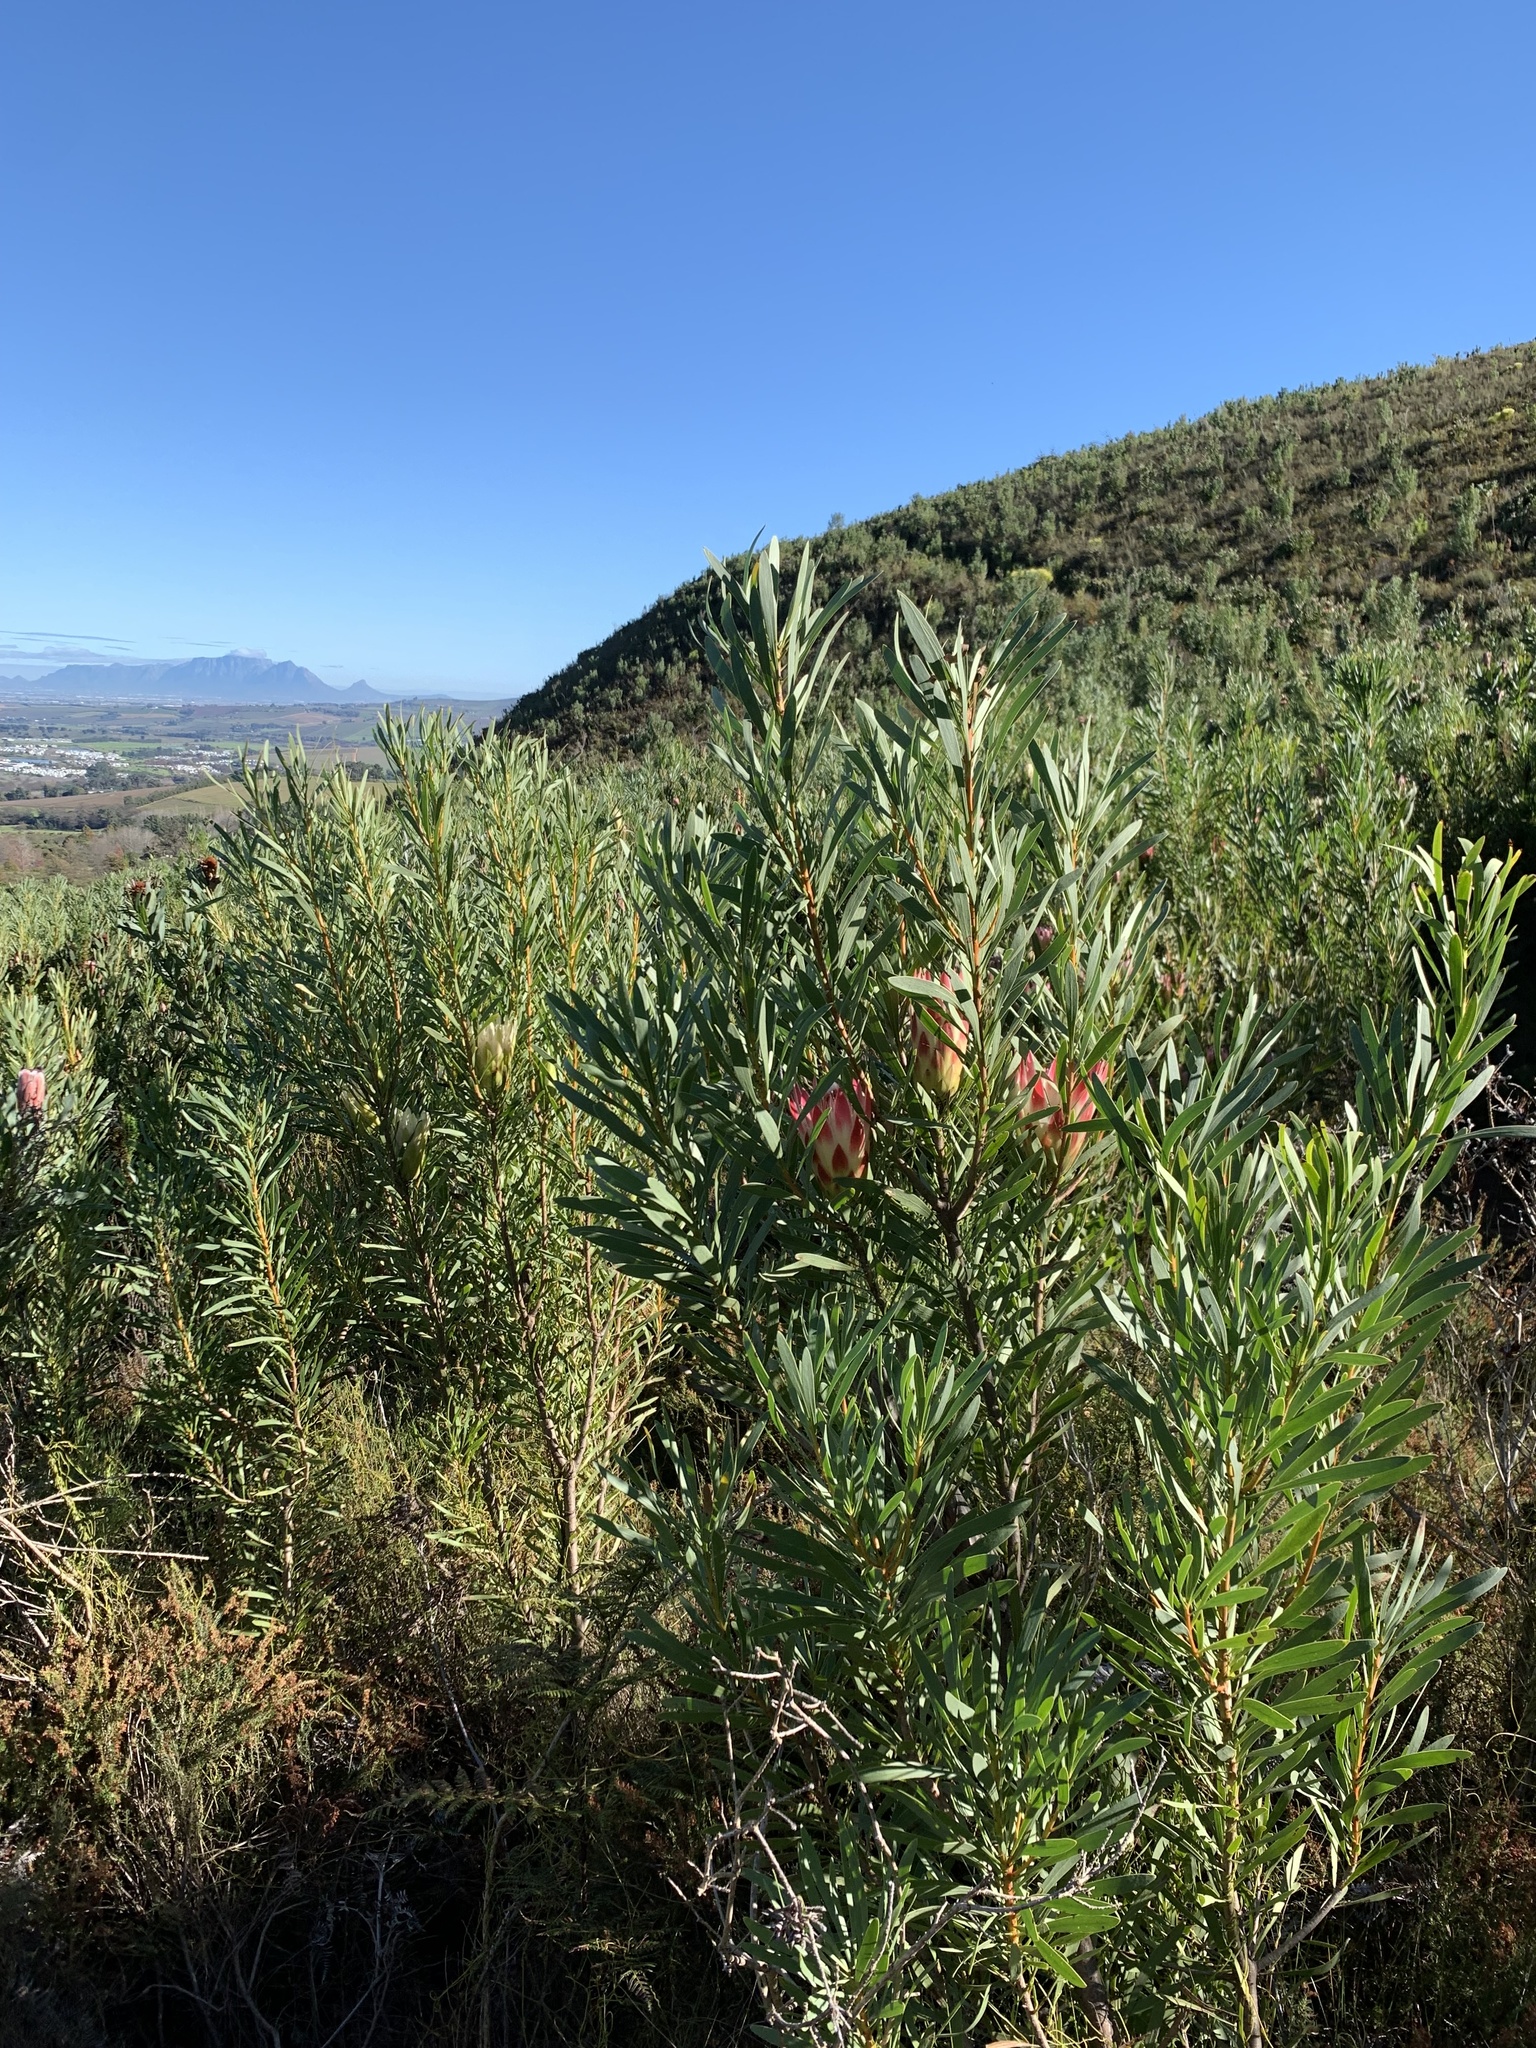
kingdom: Plantae
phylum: Tracheophyta
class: Magnoliopsida
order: Proteales
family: Proteaceae
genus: Protea
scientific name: Protea repens
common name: Sugarbush
